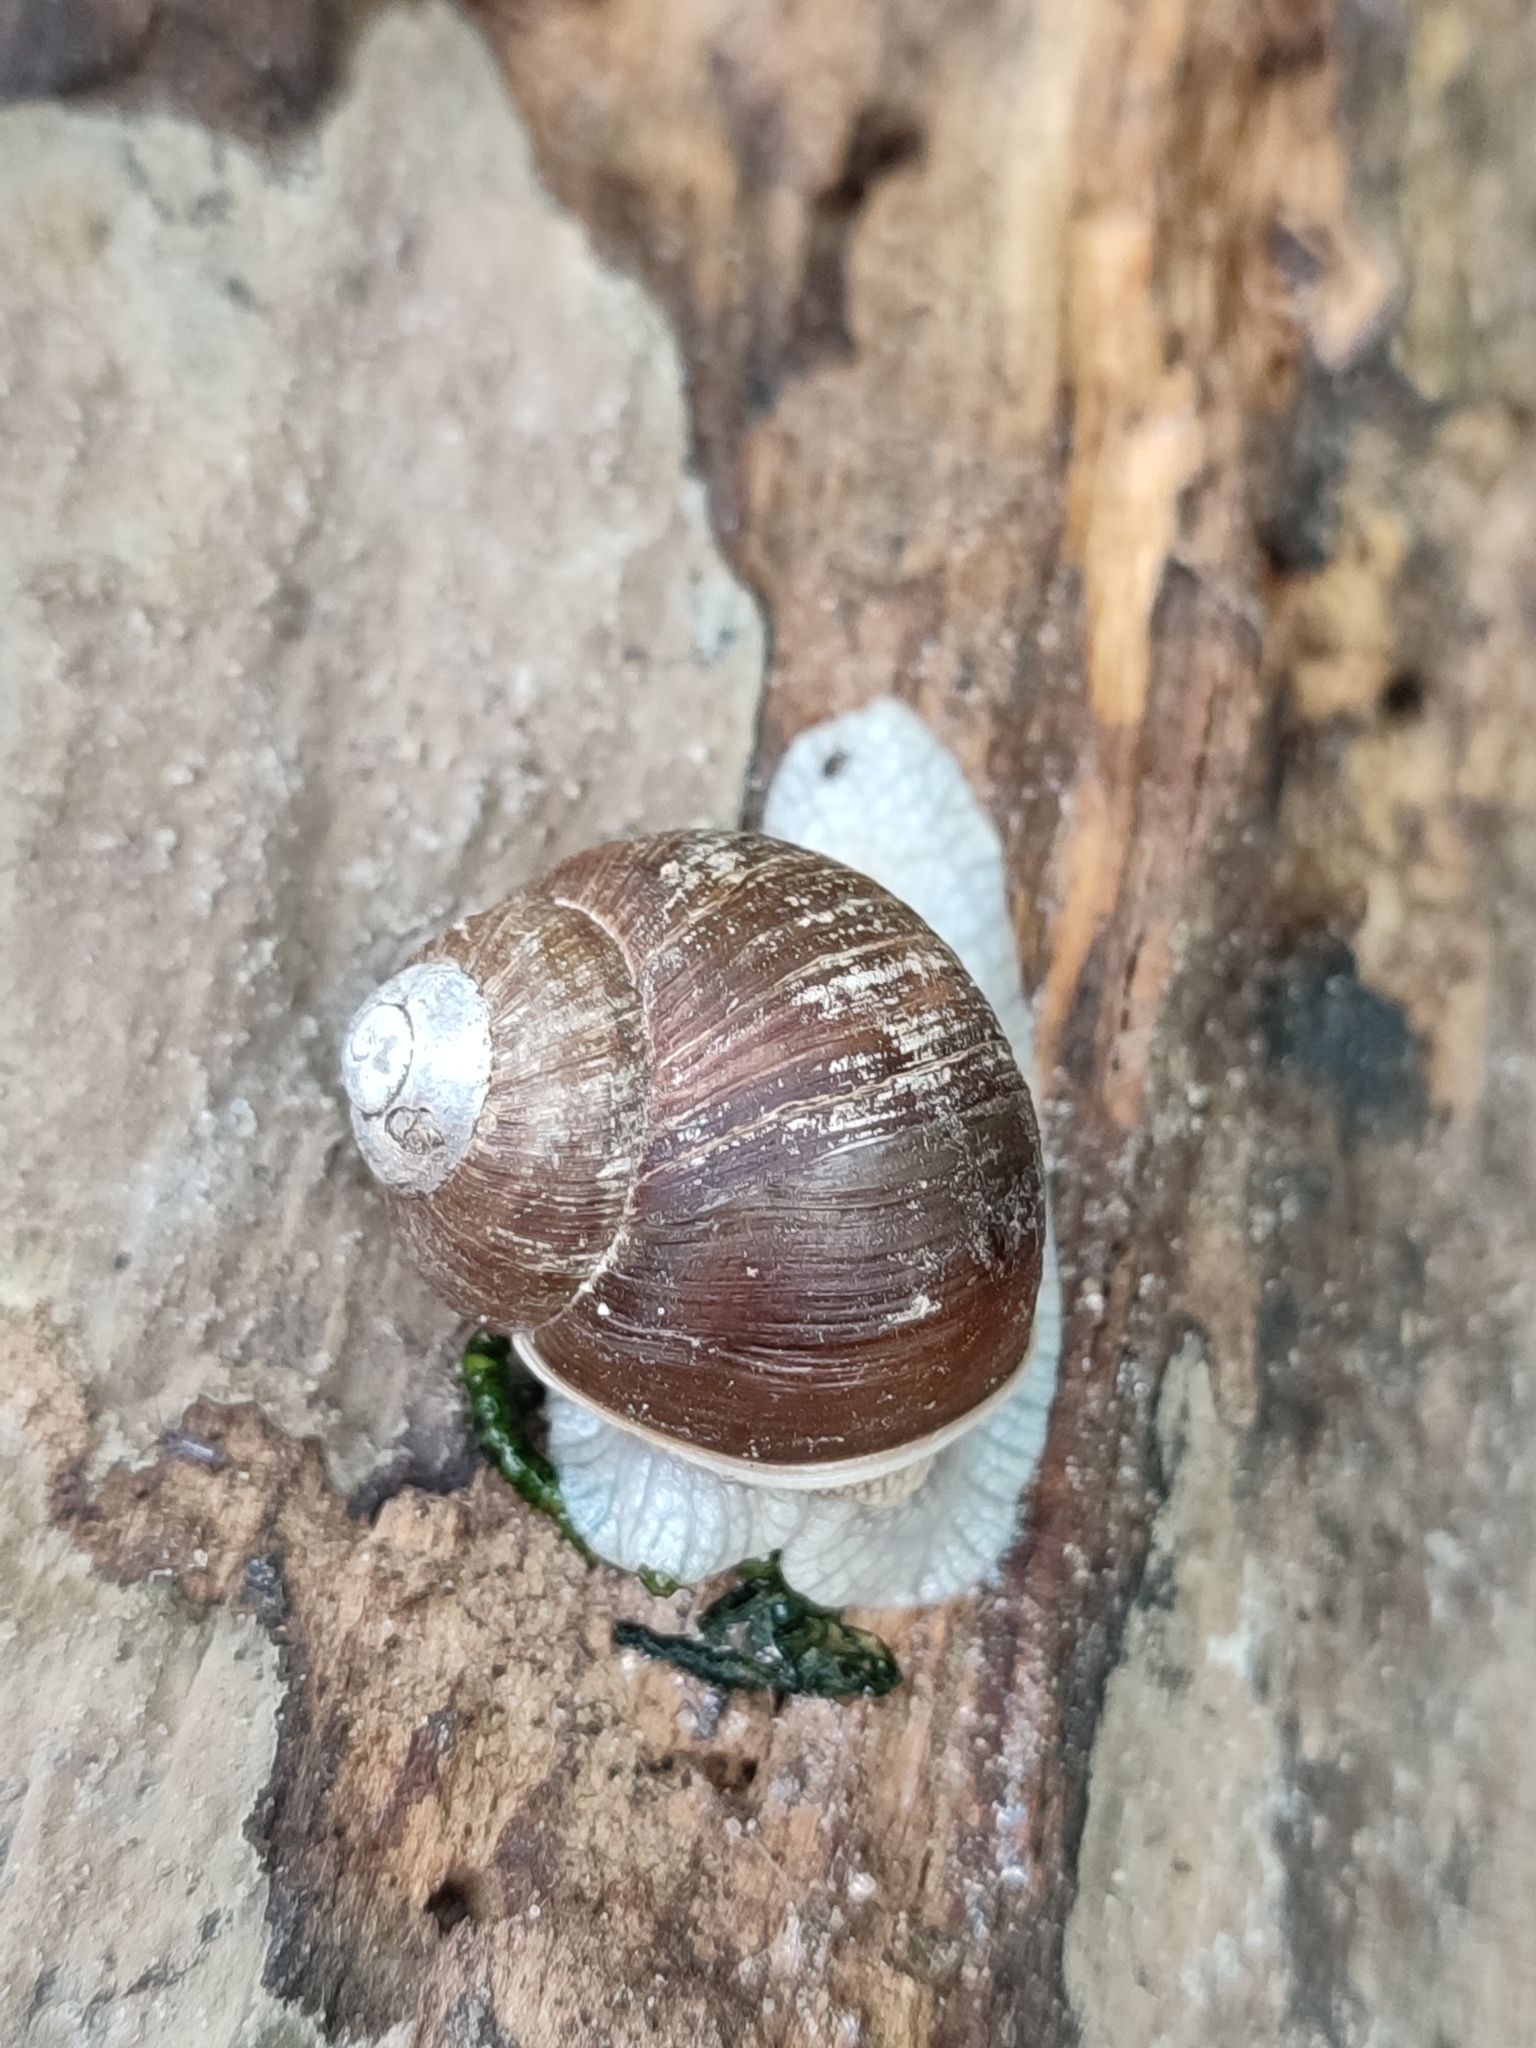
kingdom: Animalia
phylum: Mollusca
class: Gastropoda
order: Stylommatophora
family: Helicidae
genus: Helix
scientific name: Helix pomatia
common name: Roman snail
